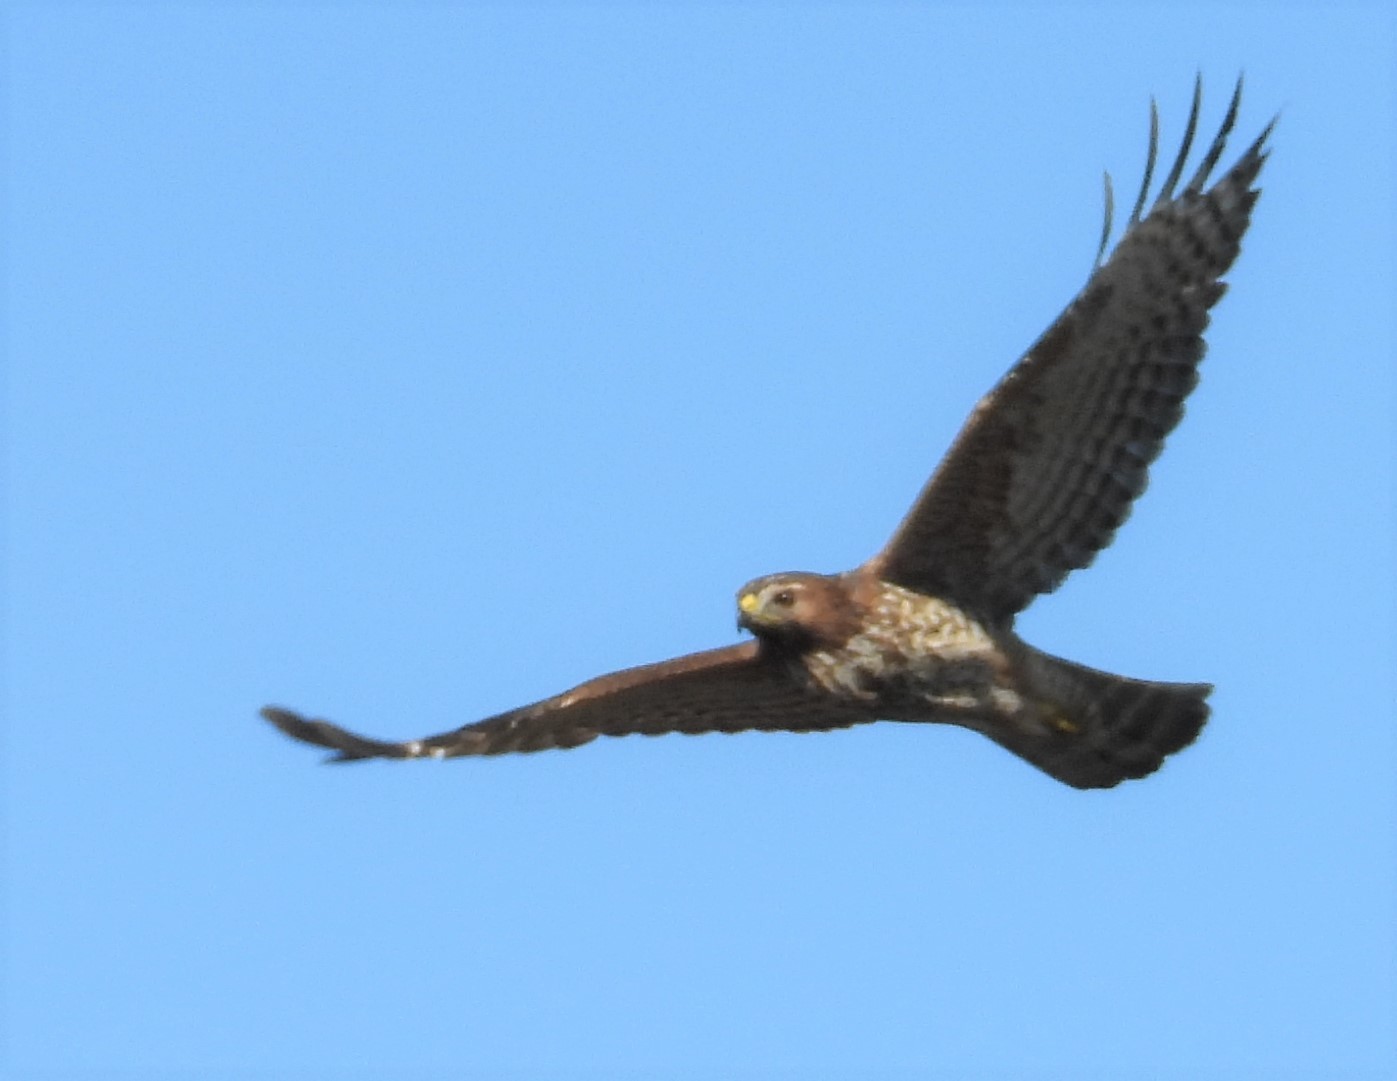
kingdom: Animalia
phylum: Chordata
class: Aves
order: Accipitriformes
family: Accipitridae
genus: Buteo
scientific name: Buteo lineatus
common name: Red-shouldered hawk
